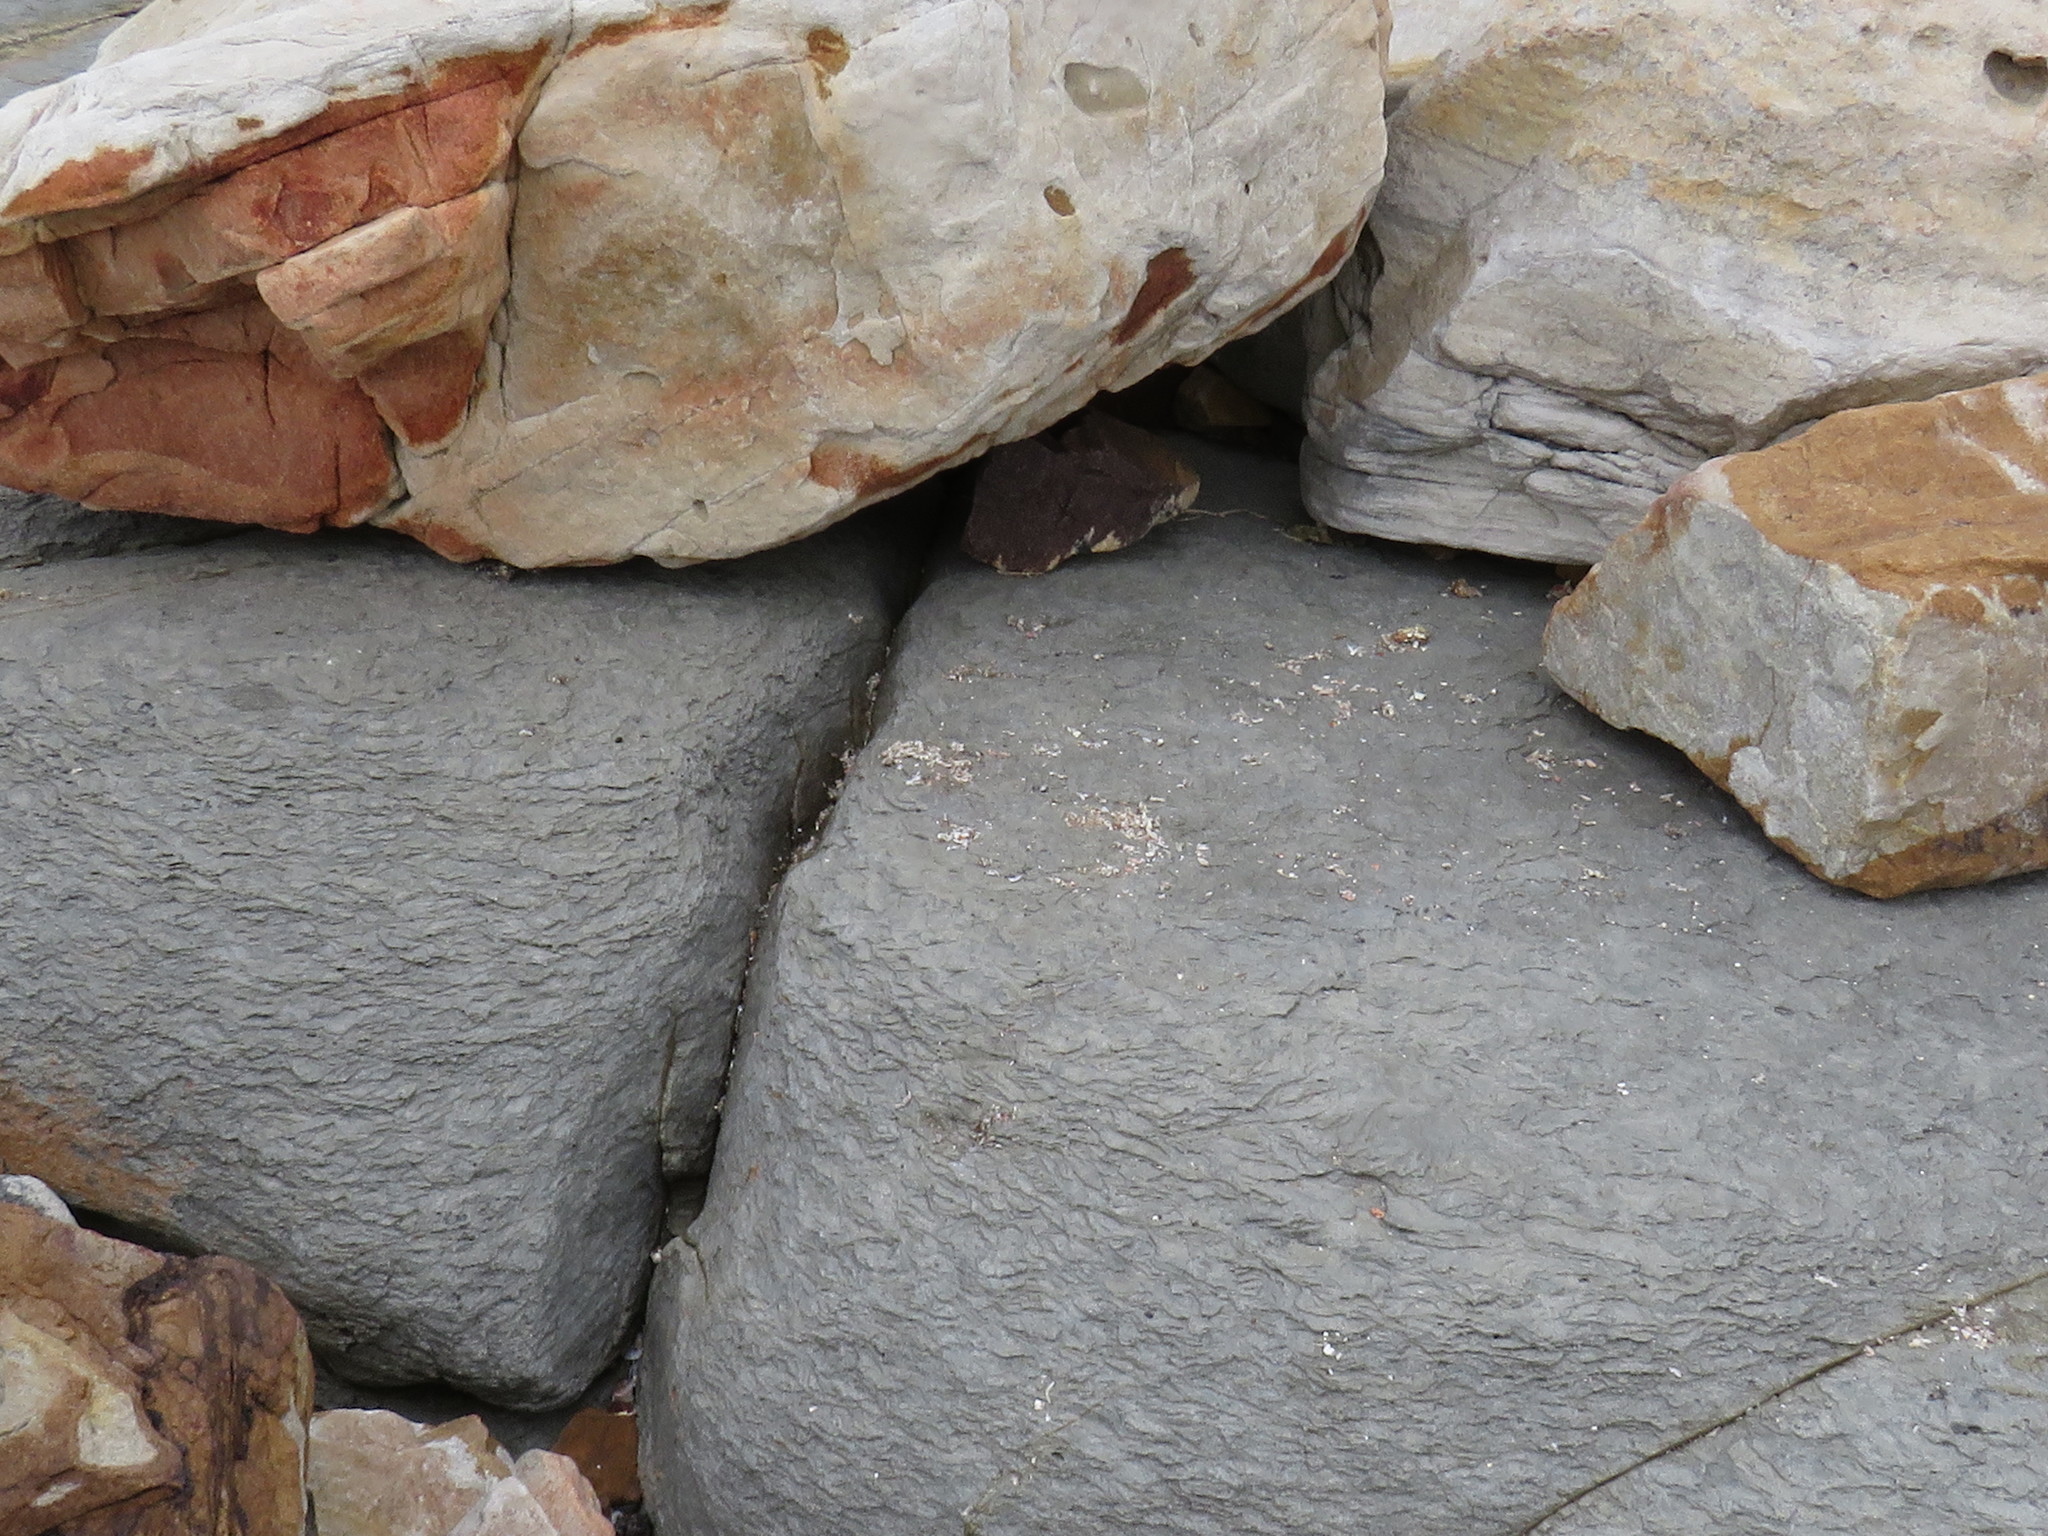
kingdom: Animalia
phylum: Chordata
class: Mammalia
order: Carnivora
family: Mustelidae
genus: Aonyx
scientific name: Aonyx capensis
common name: African clawless otter
